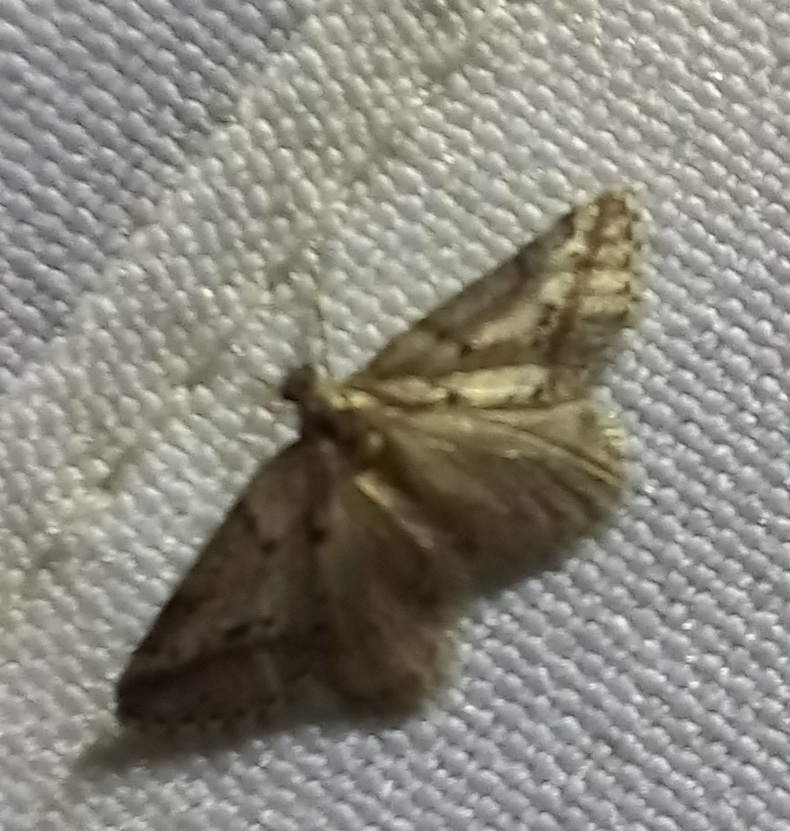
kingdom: Animalia
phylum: Arthropoda
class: Insecta
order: Lepidoptera
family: Geometridae
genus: Tephronia
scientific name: Tephronia oranaria
